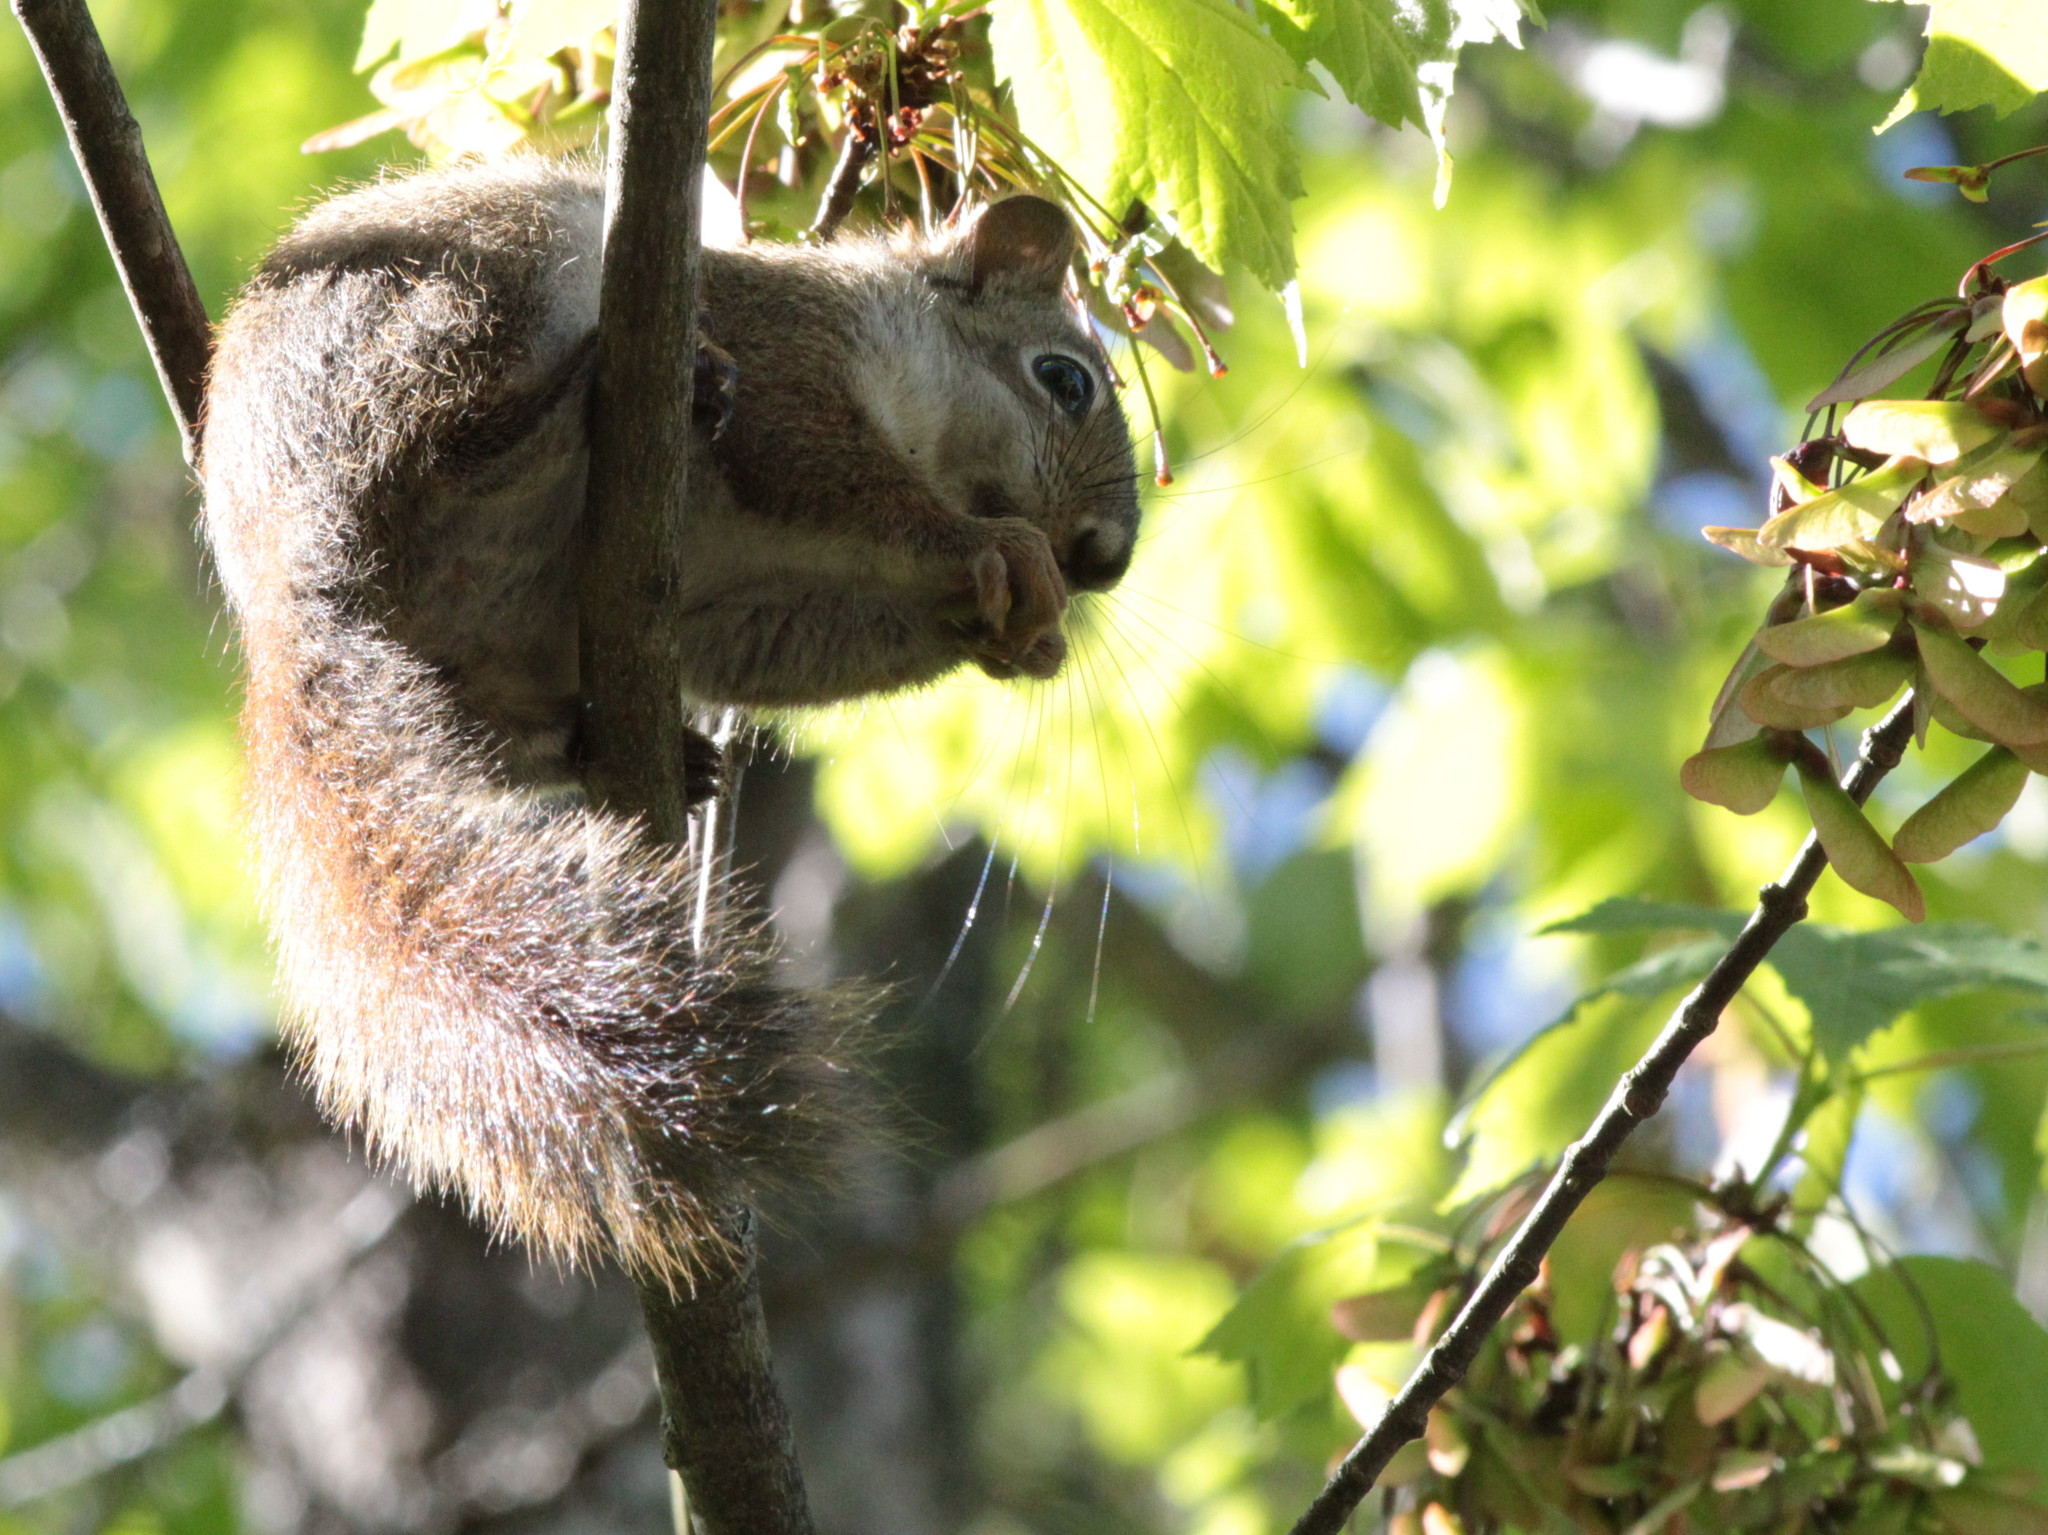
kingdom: Animalia
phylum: Chordata
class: Mammalia
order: Rodentia
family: Sciuridae
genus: Tamiasciurus
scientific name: Tamiasciurus hudsonicus
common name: Red squirrel
